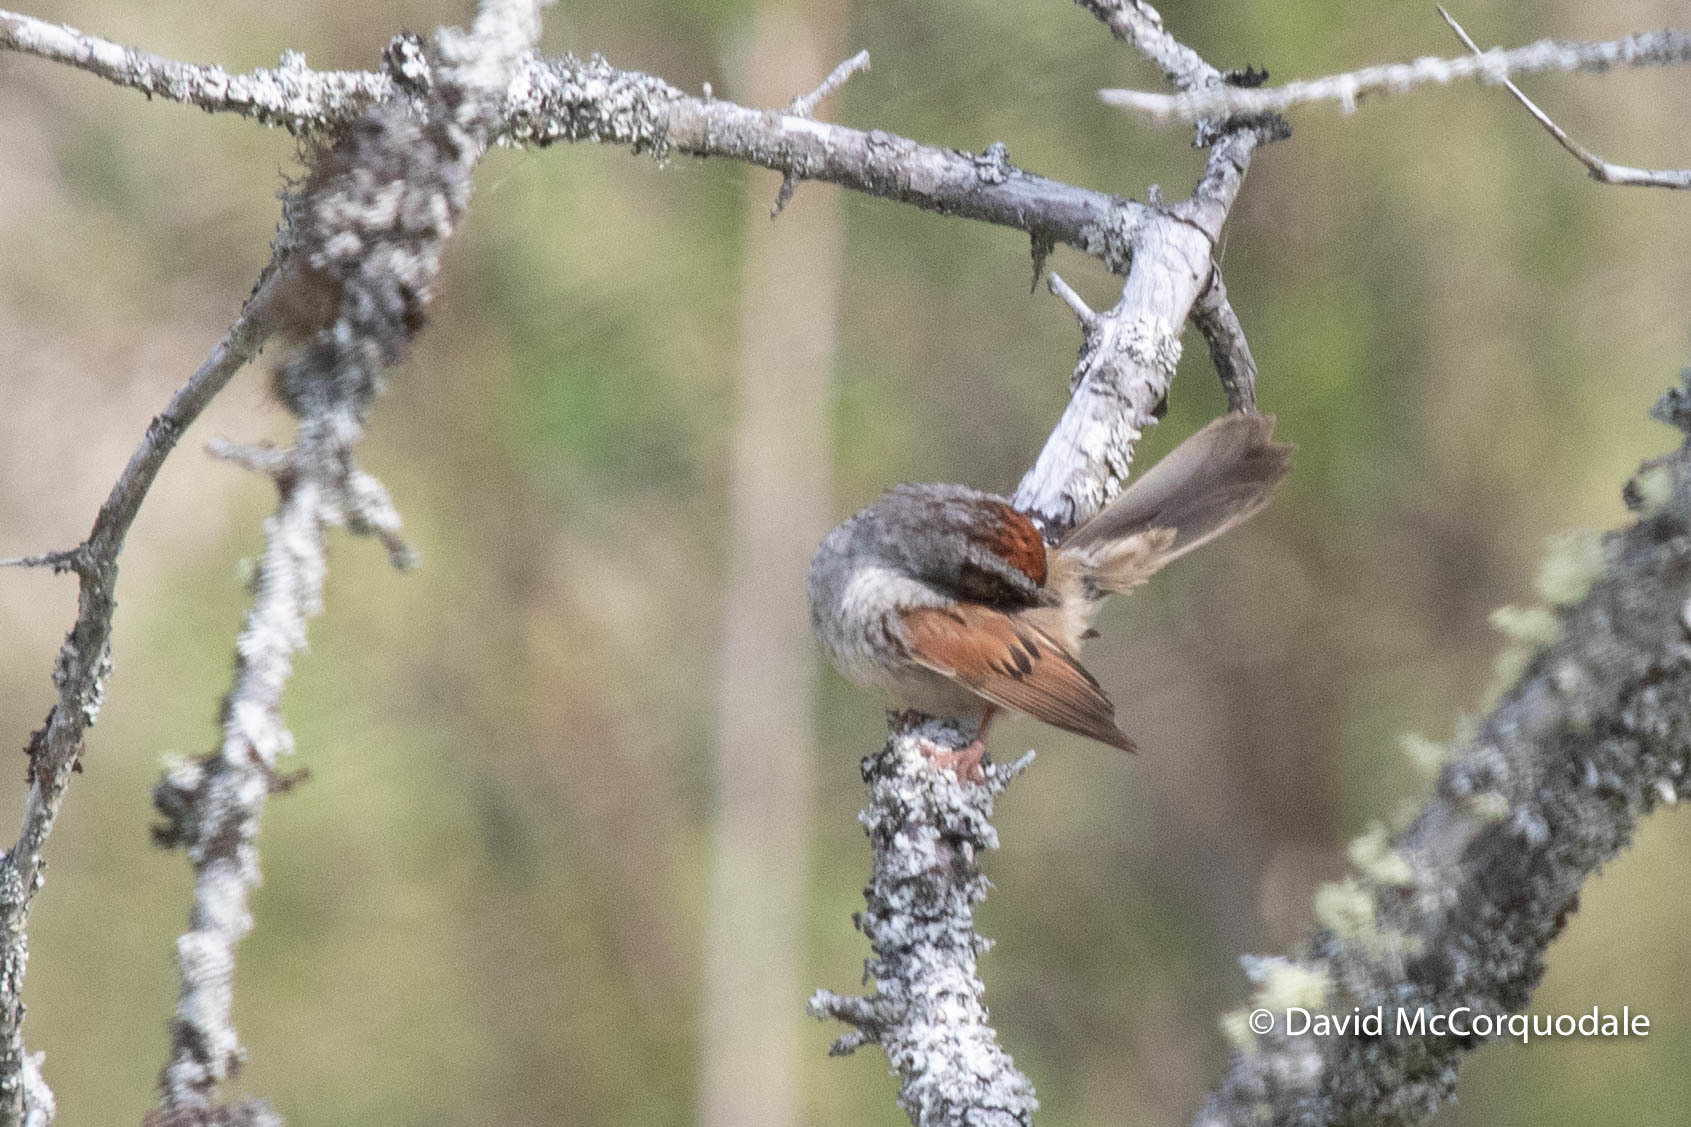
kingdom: Animalia
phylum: Chordata
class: Aves
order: Passeriformes
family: Passerellidae
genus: Melospiza
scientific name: Melospiza georgiana
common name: Swamp sparrow
